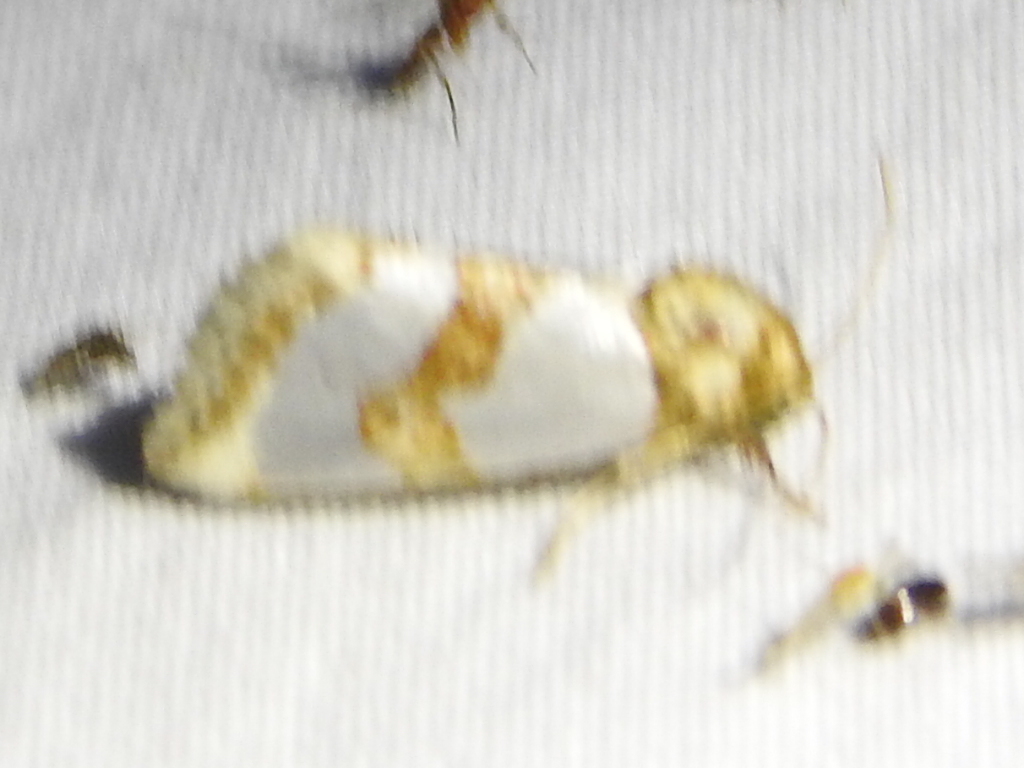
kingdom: Animalia
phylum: Arthropoda
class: Insecta
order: Lepidoptera
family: Noctuidae
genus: Schinia
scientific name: Schinia chrysellus
